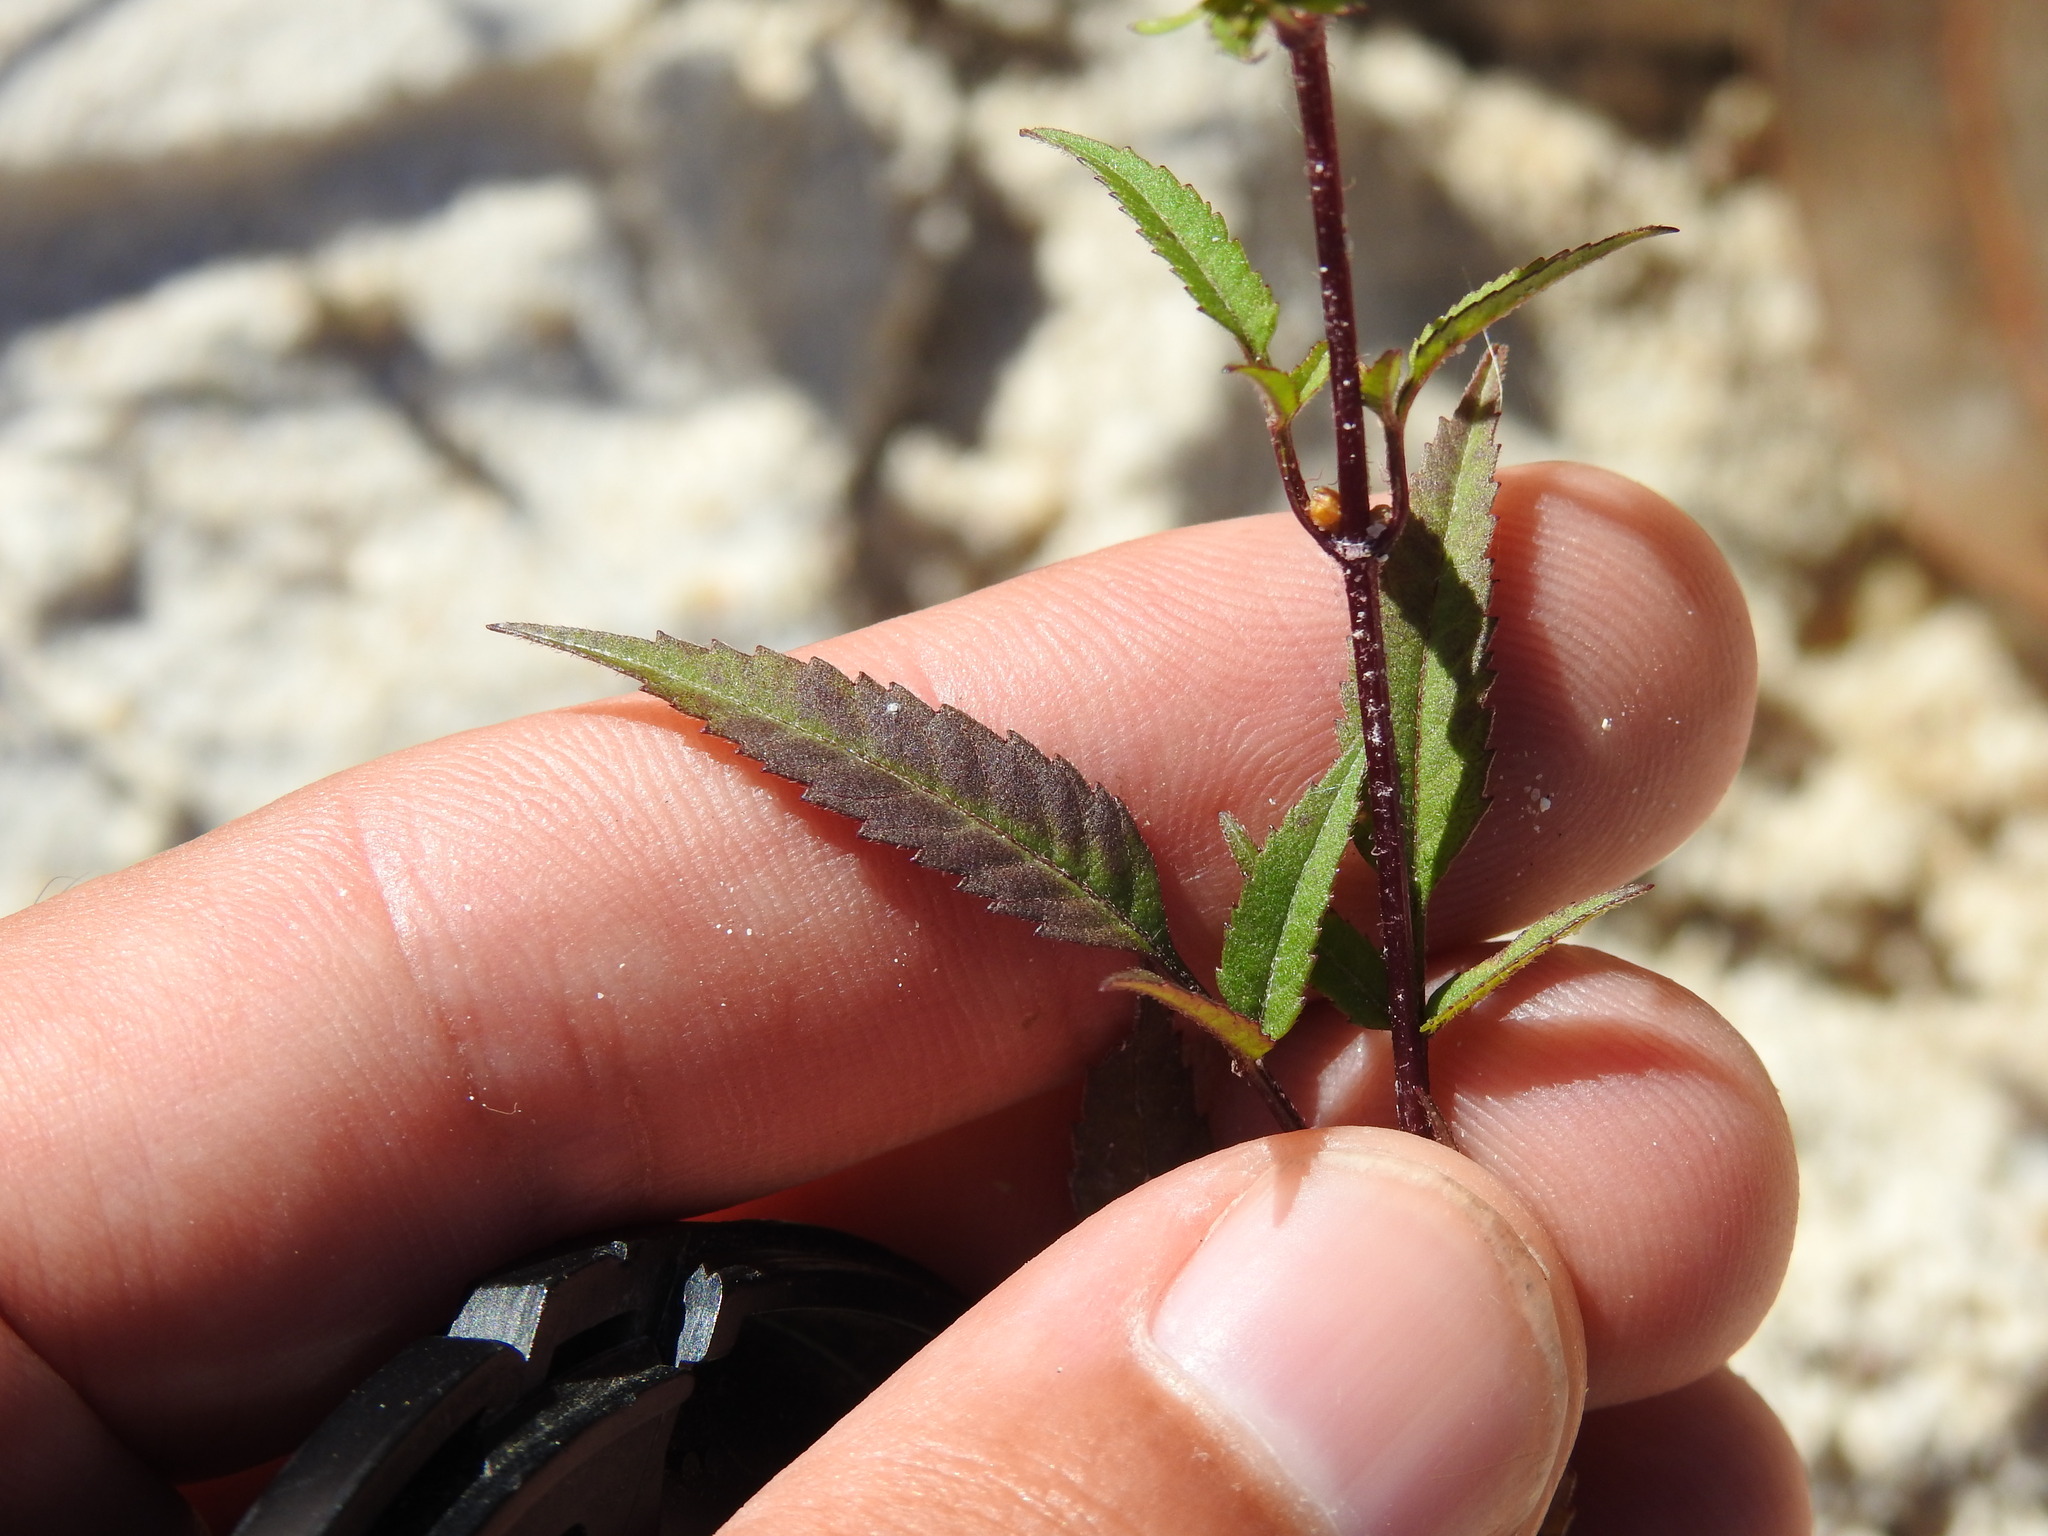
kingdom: Plantae
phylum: Tracheophyta
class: Magnoliopsida
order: Asterales
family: Asteraceae
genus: Bidens
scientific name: Bidens frondosa
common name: Beggarticks
